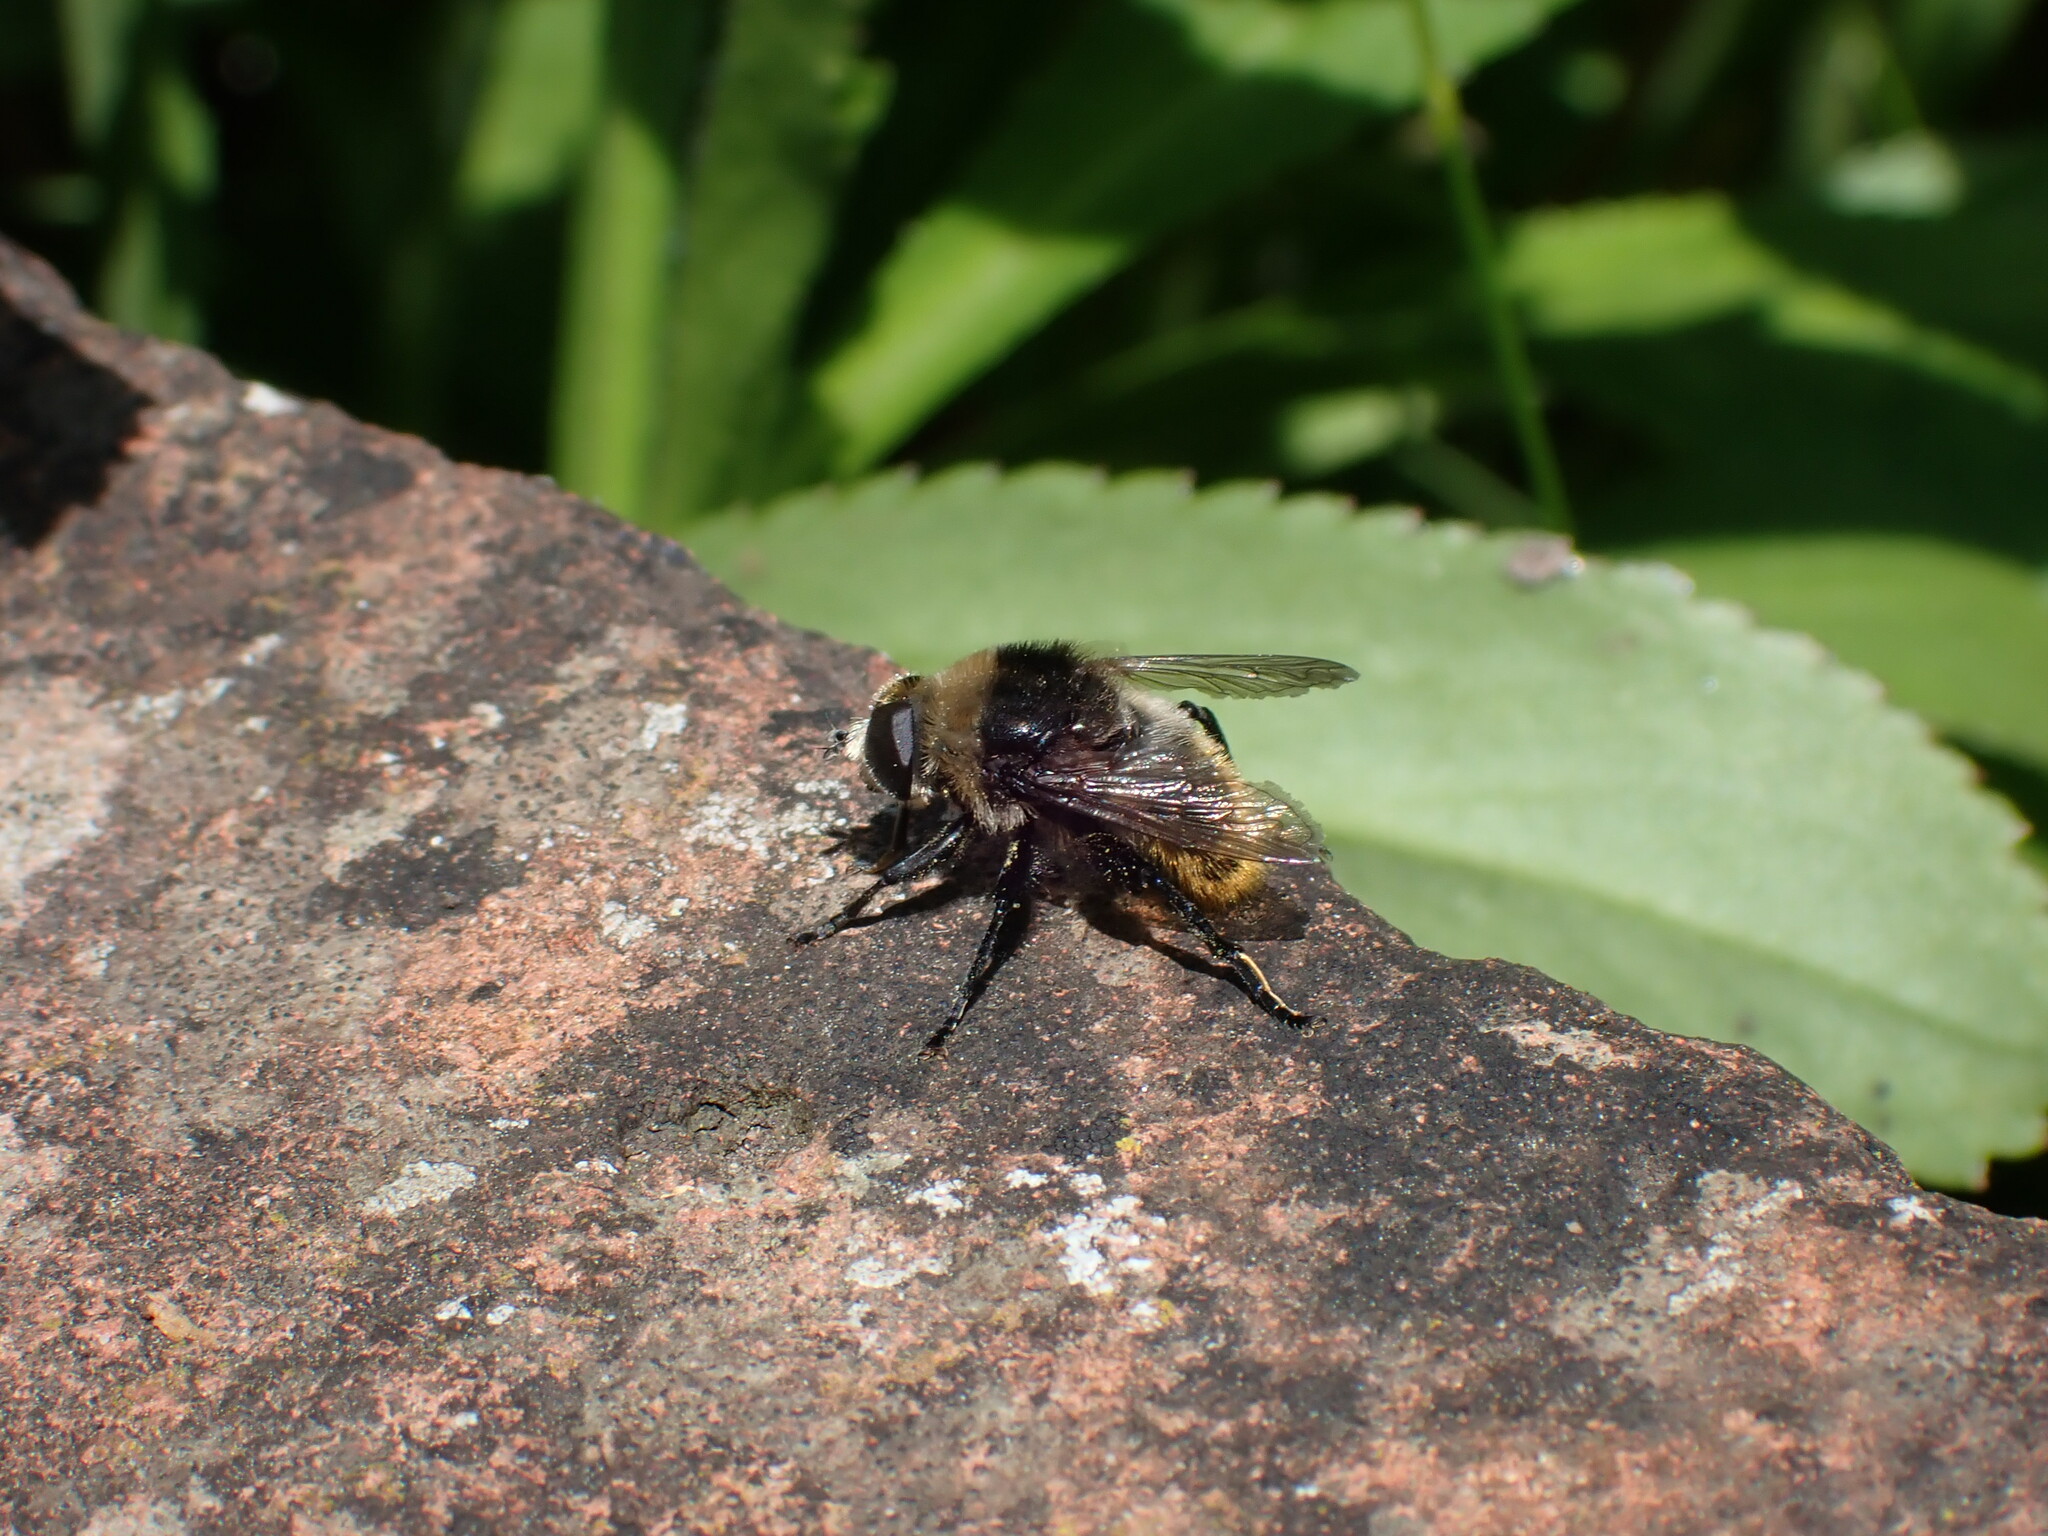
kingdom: Animalia
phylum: Arthropoda
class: Insecta
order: Diptera
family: Syrphidae
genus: Merodon
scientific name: Merodon equestris
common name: Greater bulb-fly
